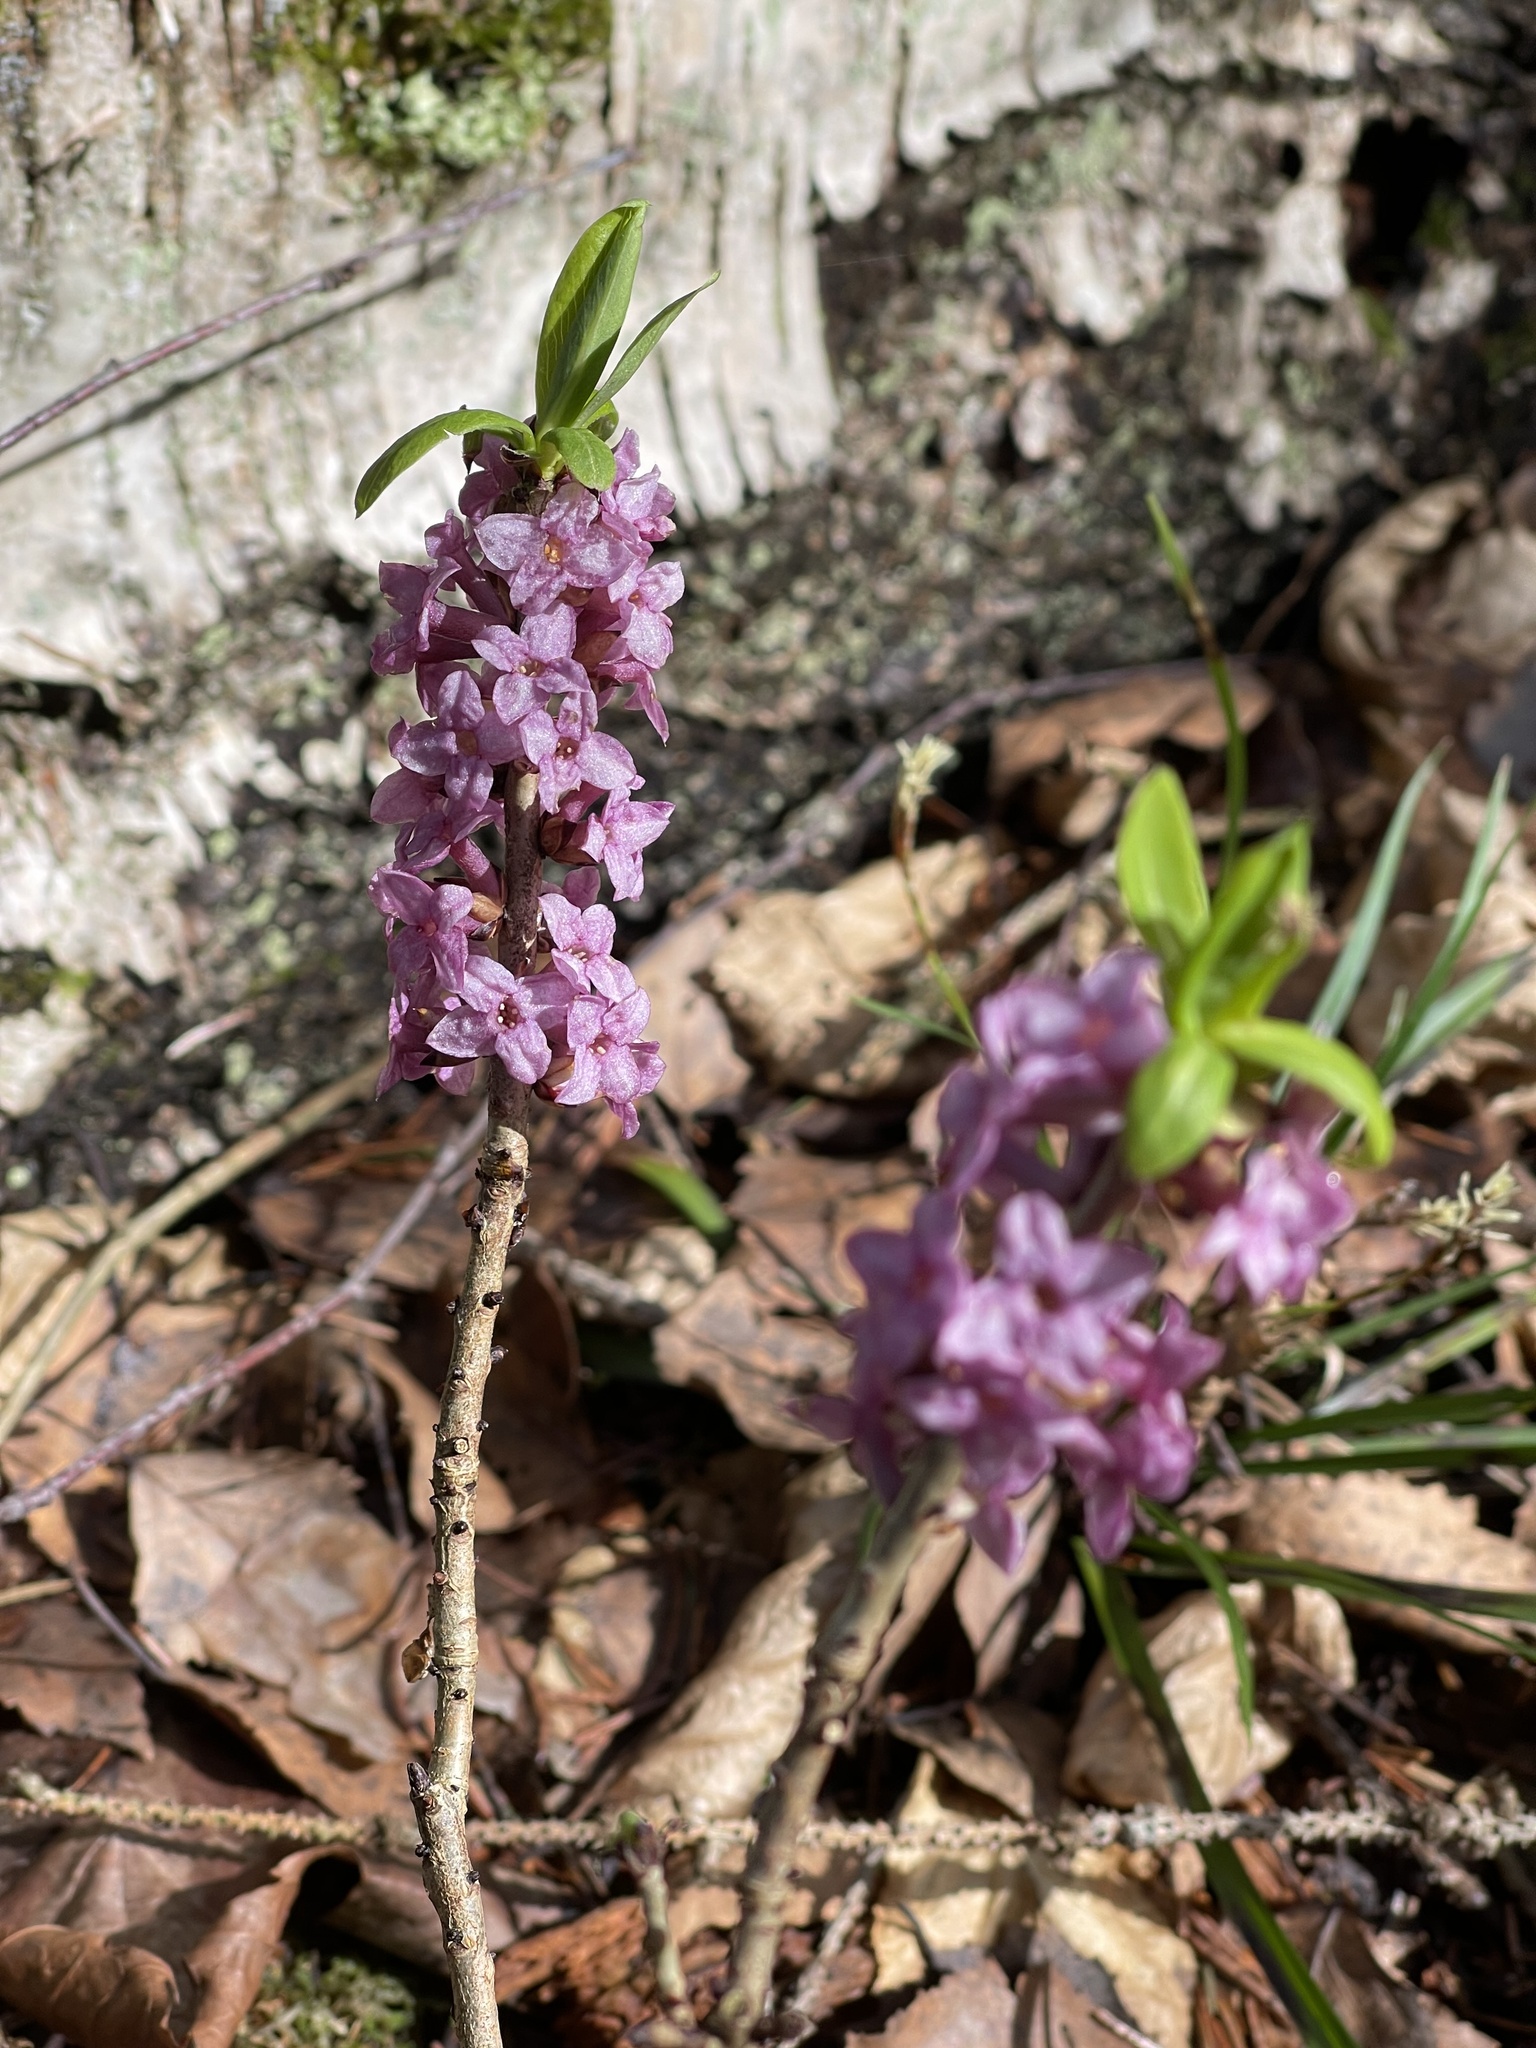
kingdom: Plantae
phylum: Tracheophyta
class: Magnoliopsida
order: Malvales
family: Thymelaeaceae
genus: Daphne
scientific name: Daphne mezereum
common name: Mezereon
